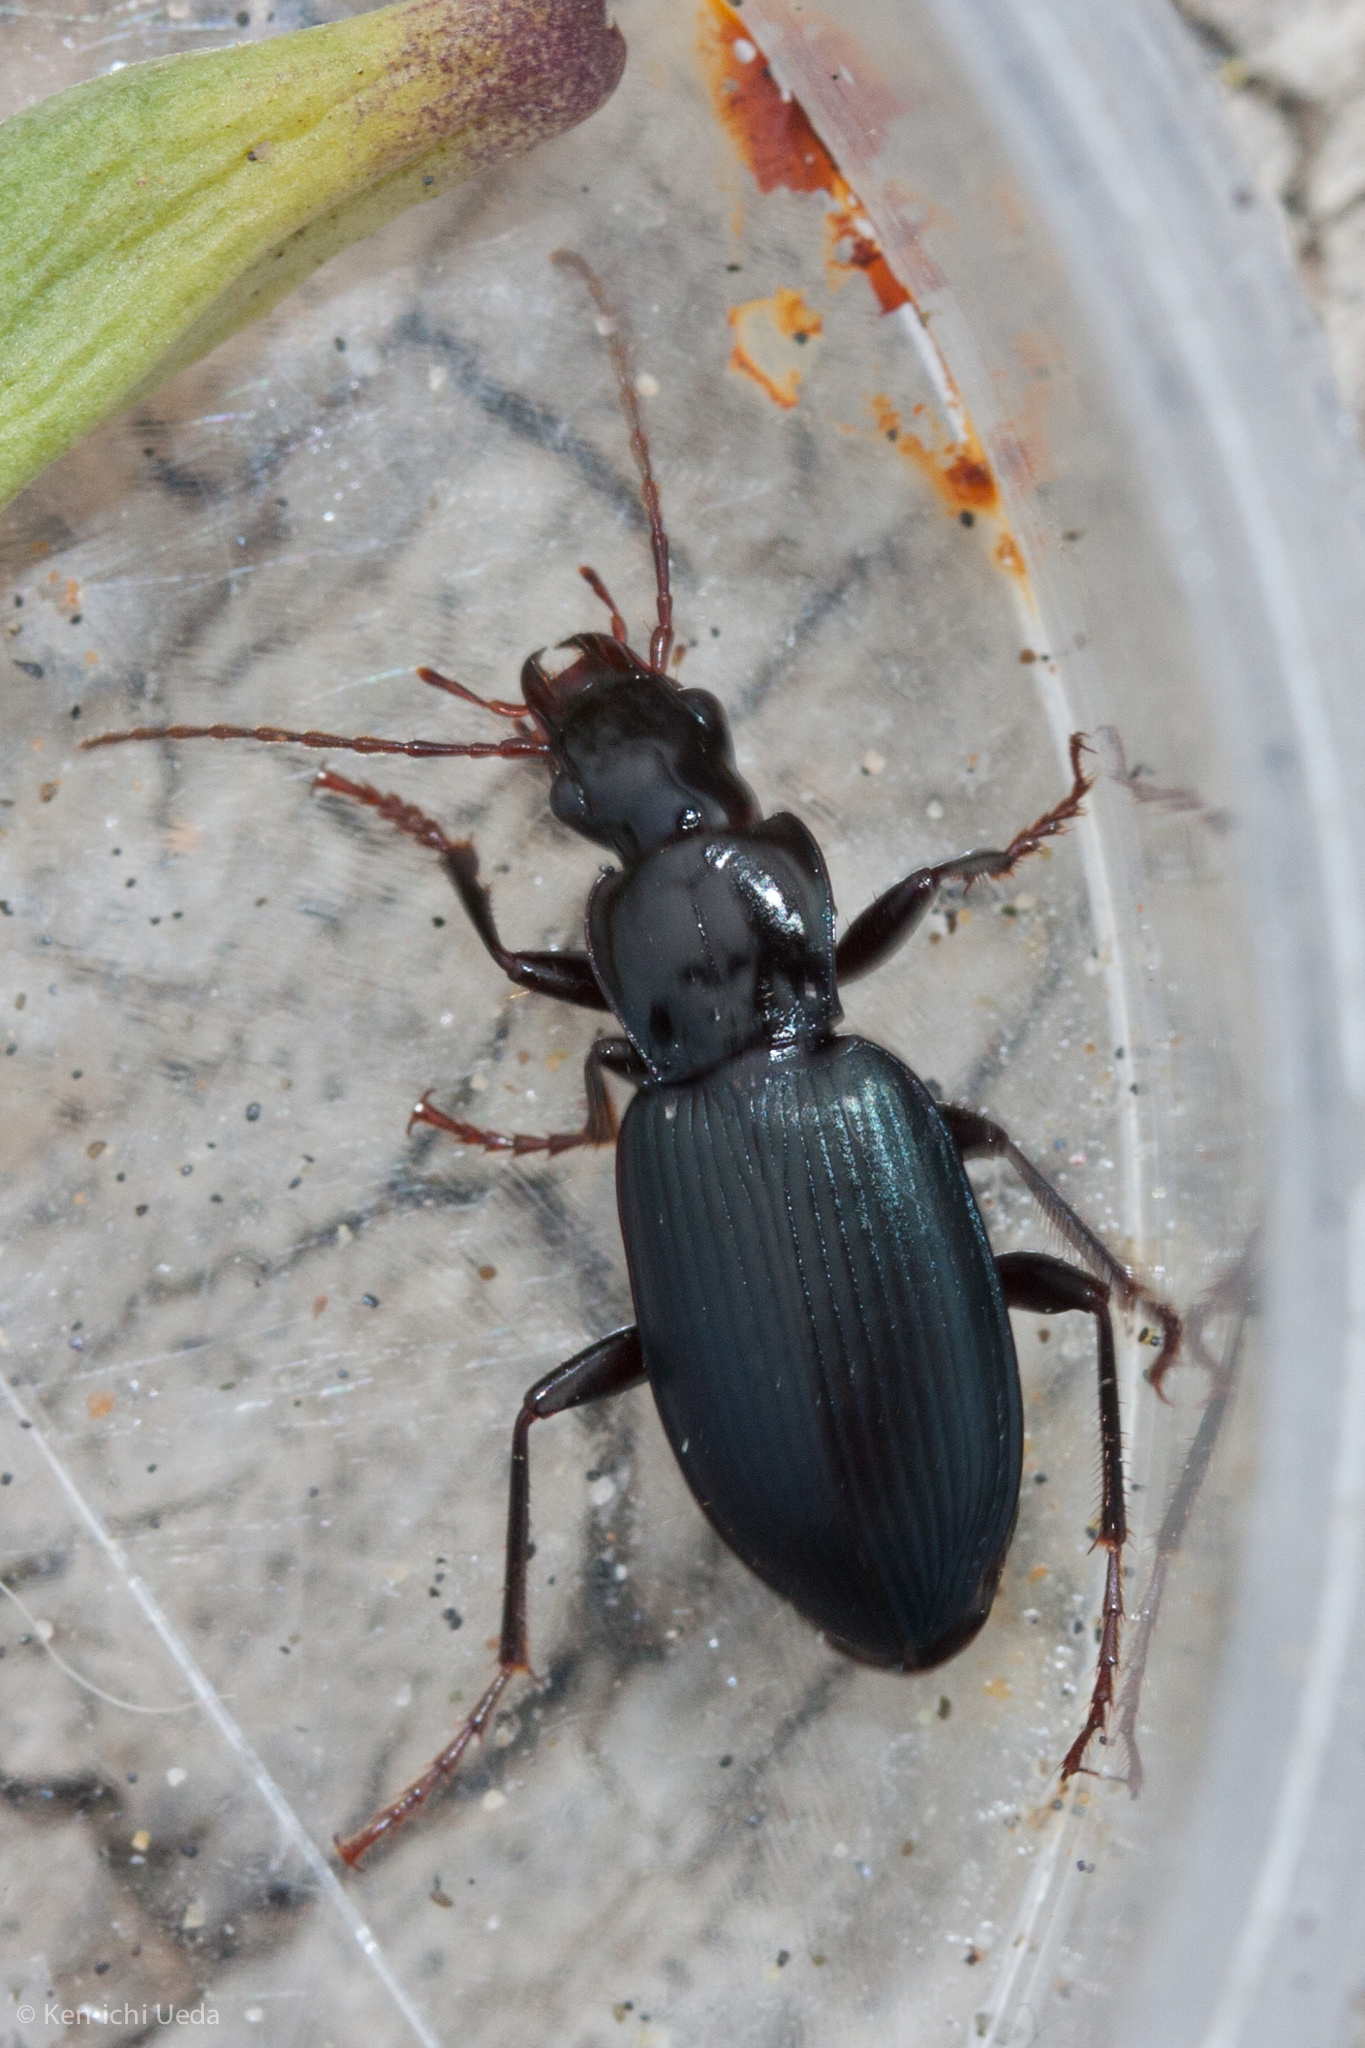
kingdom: Animalia
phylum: Arthropoda
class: Insecta
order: Coleoptera
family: Carabidae
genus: Laemostenus
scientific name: Laemostenus complanatus
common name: Cosmopolitan ground beetle
